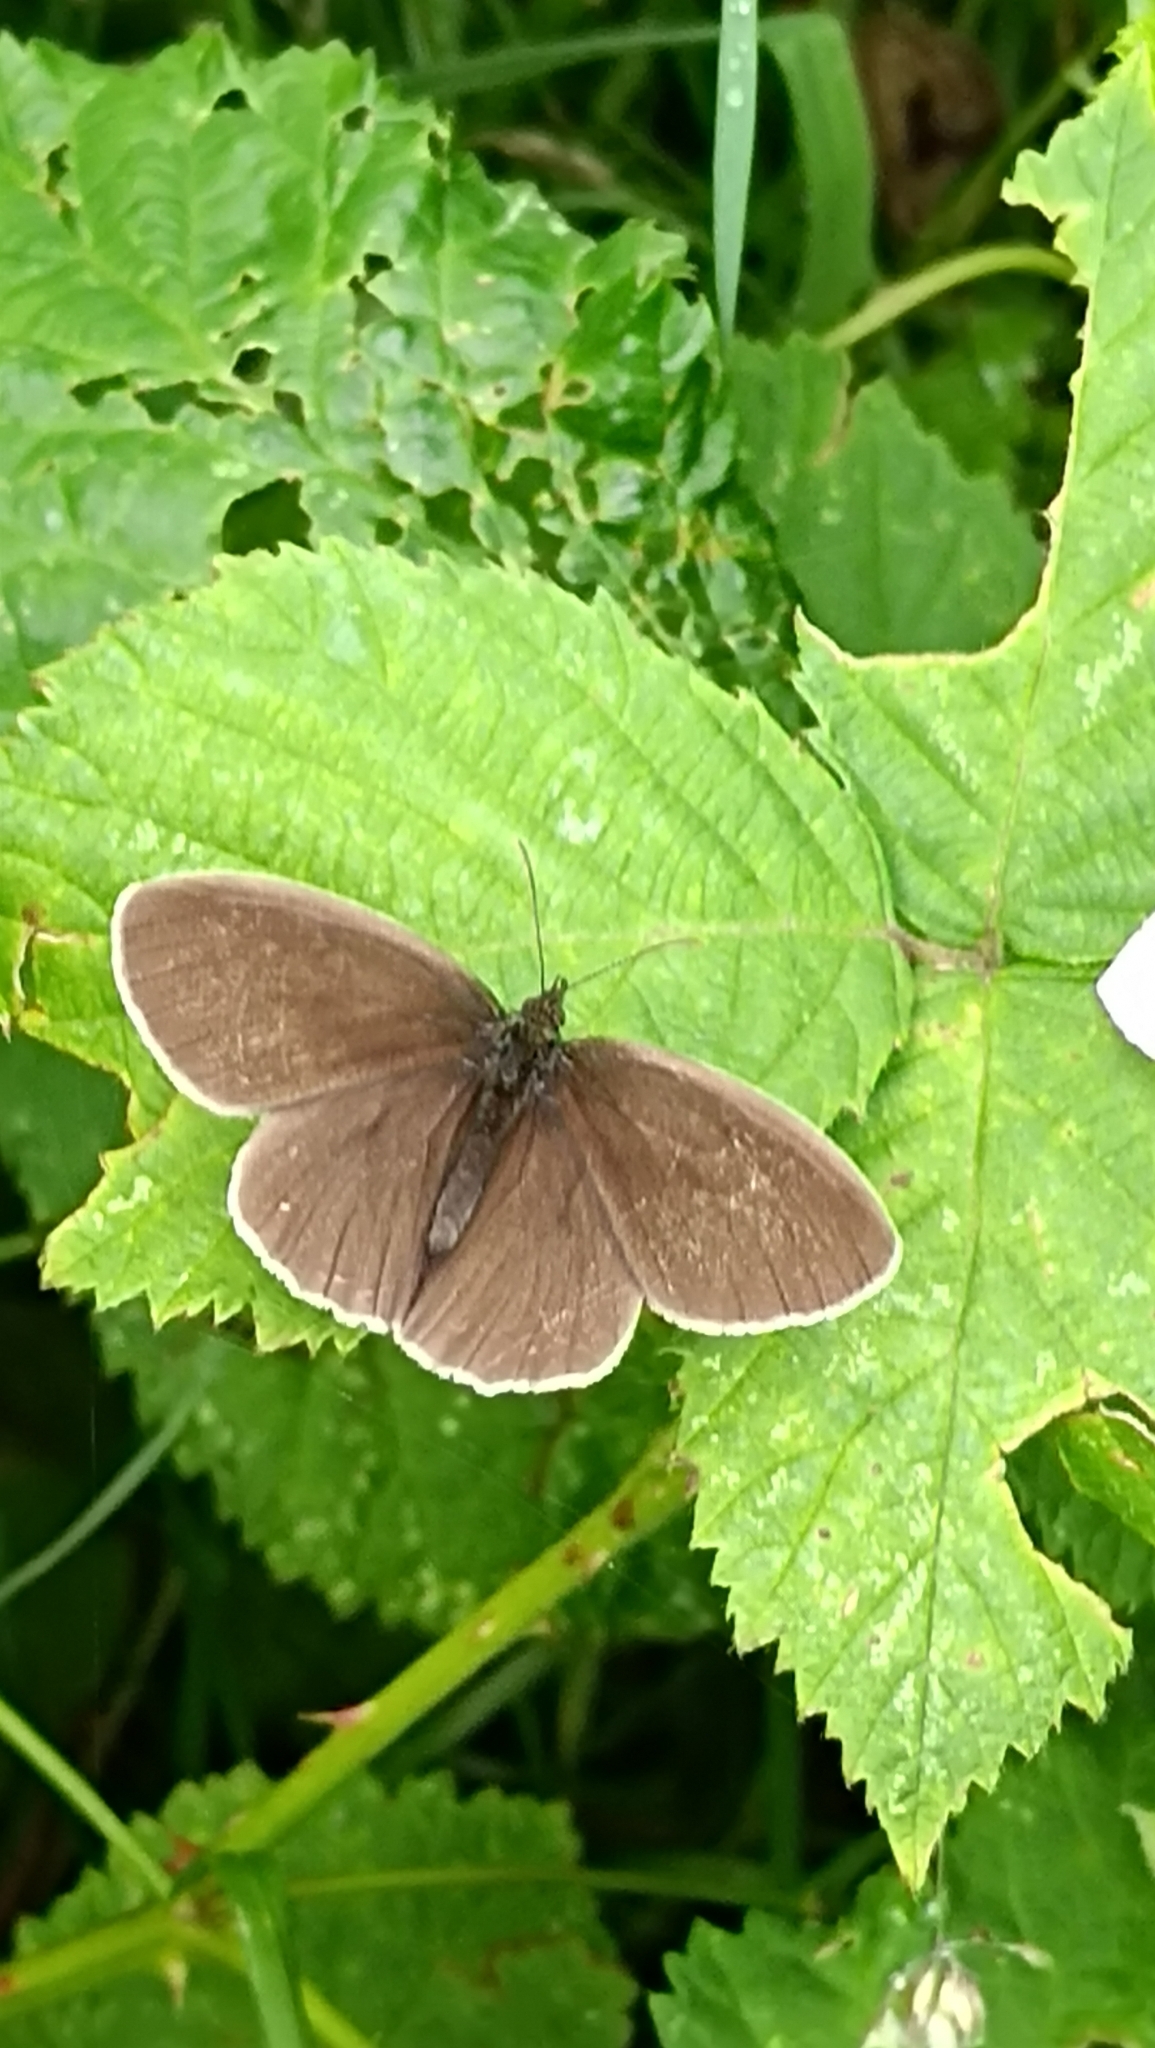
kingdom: Animalia
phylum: Arthropoda
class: Insecta
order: Lepidoptera
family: Nymphalidae
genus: Aphantopus
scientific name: Aphantopus hyperantus
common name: Ringlet
